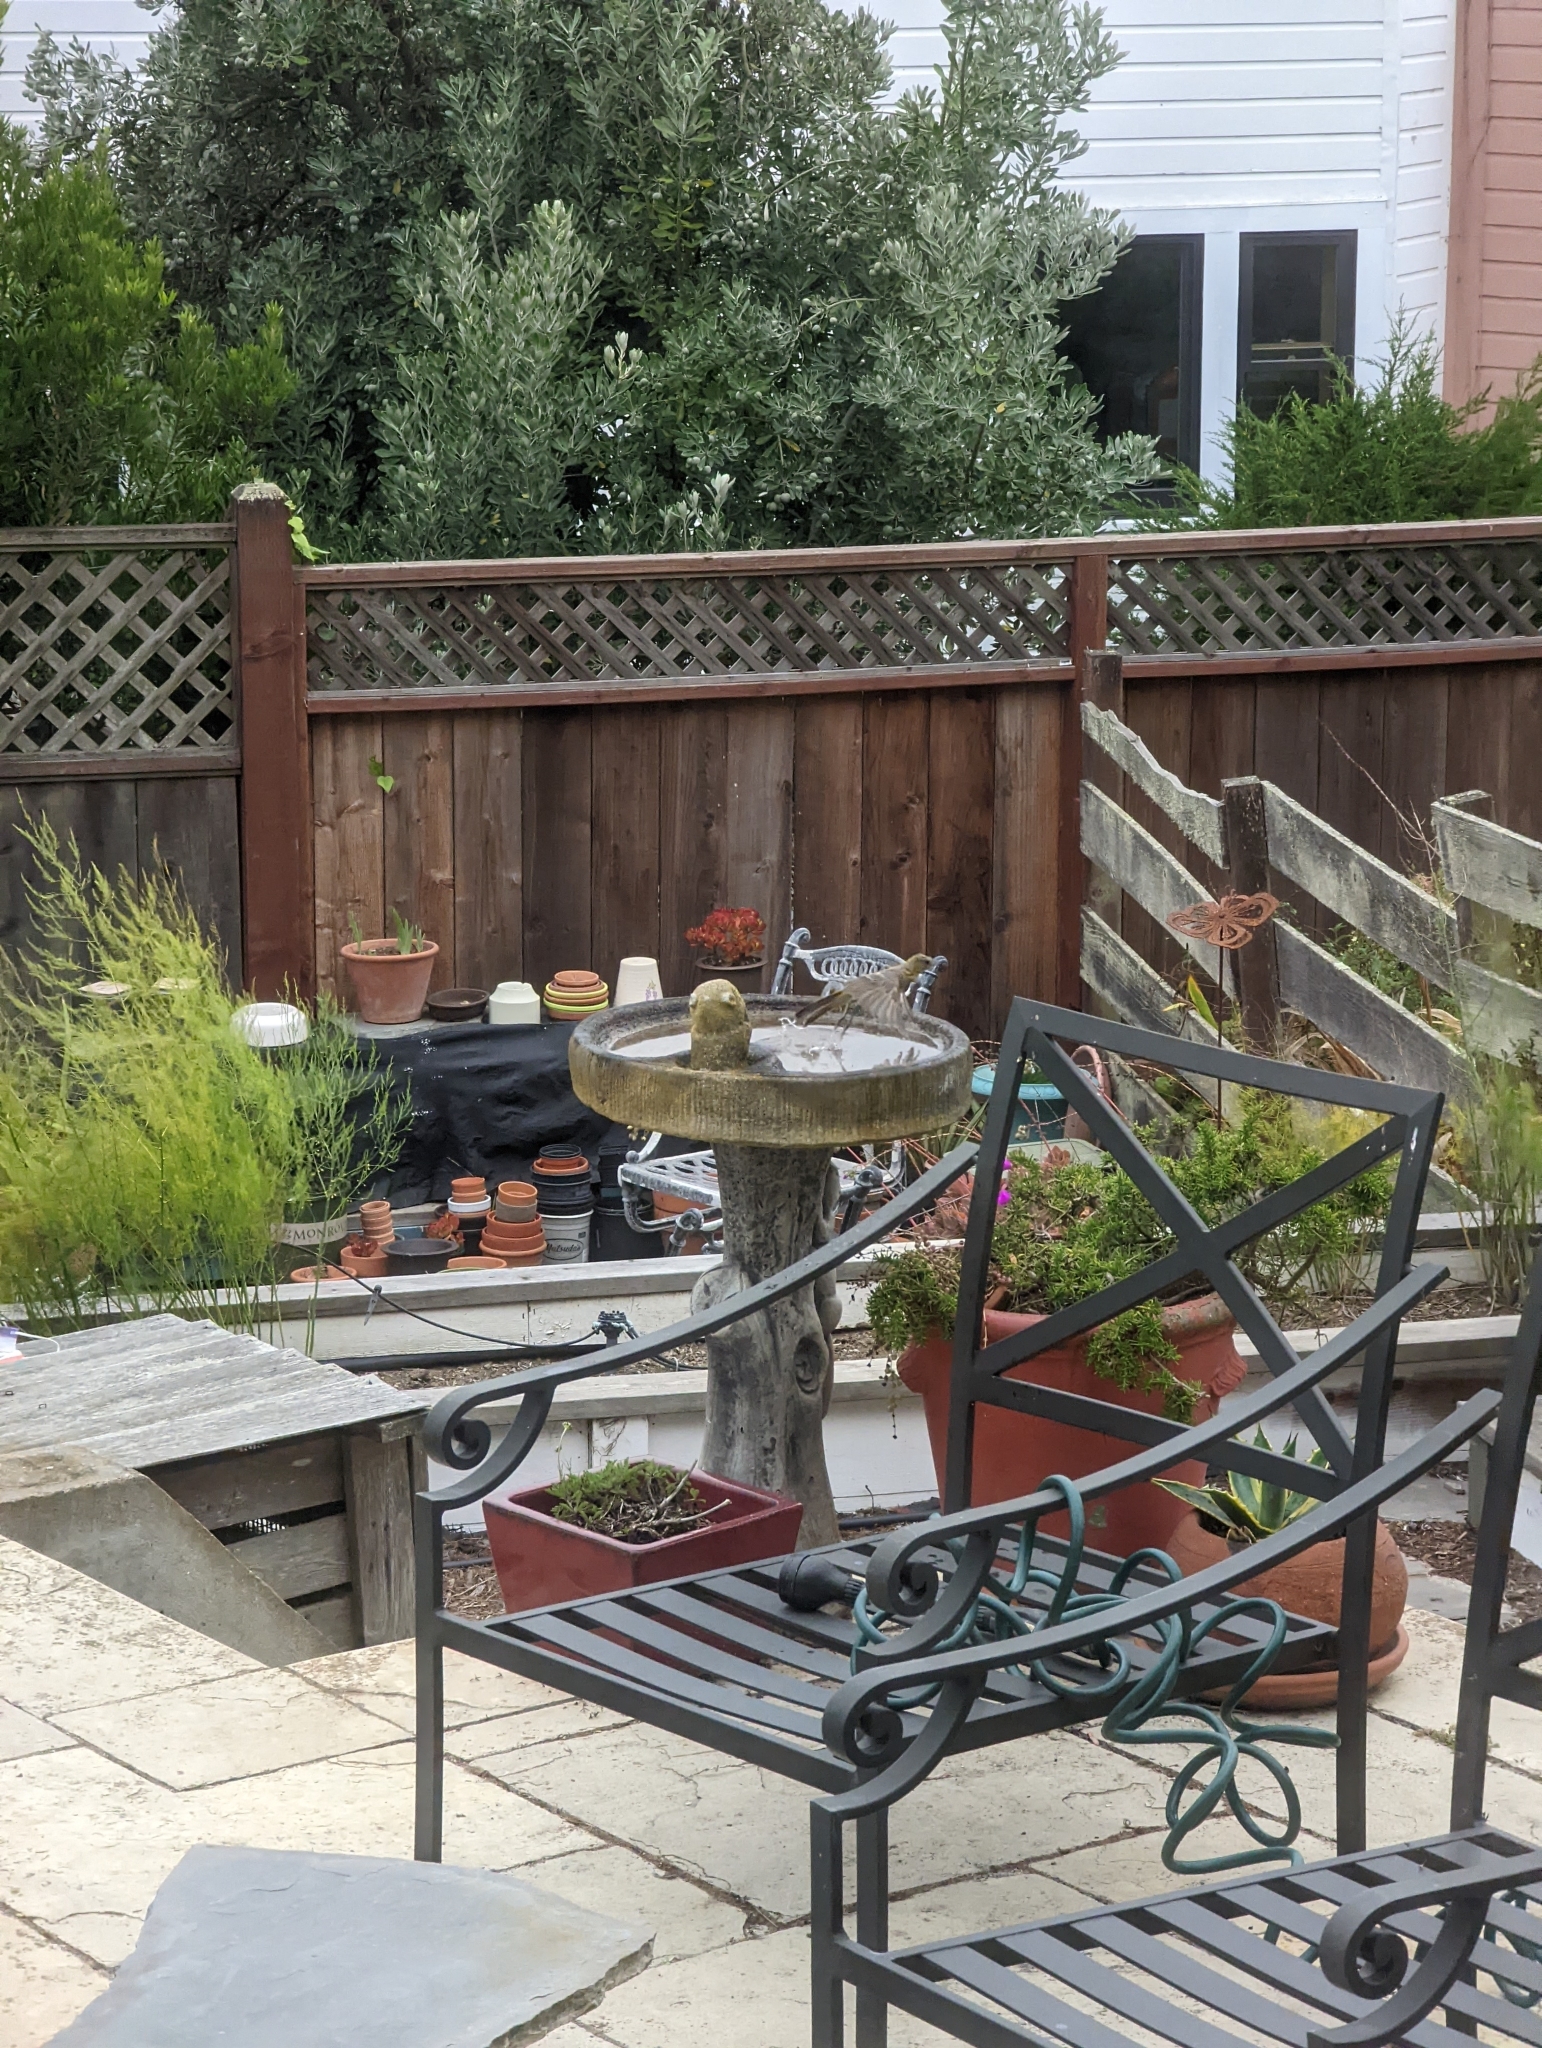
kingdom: Animalia
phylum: Chordata
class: Aves
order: Passeriformes
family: Icteridae
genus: Icterus
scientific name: Icterus cucullatus
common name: Hooded oriole
